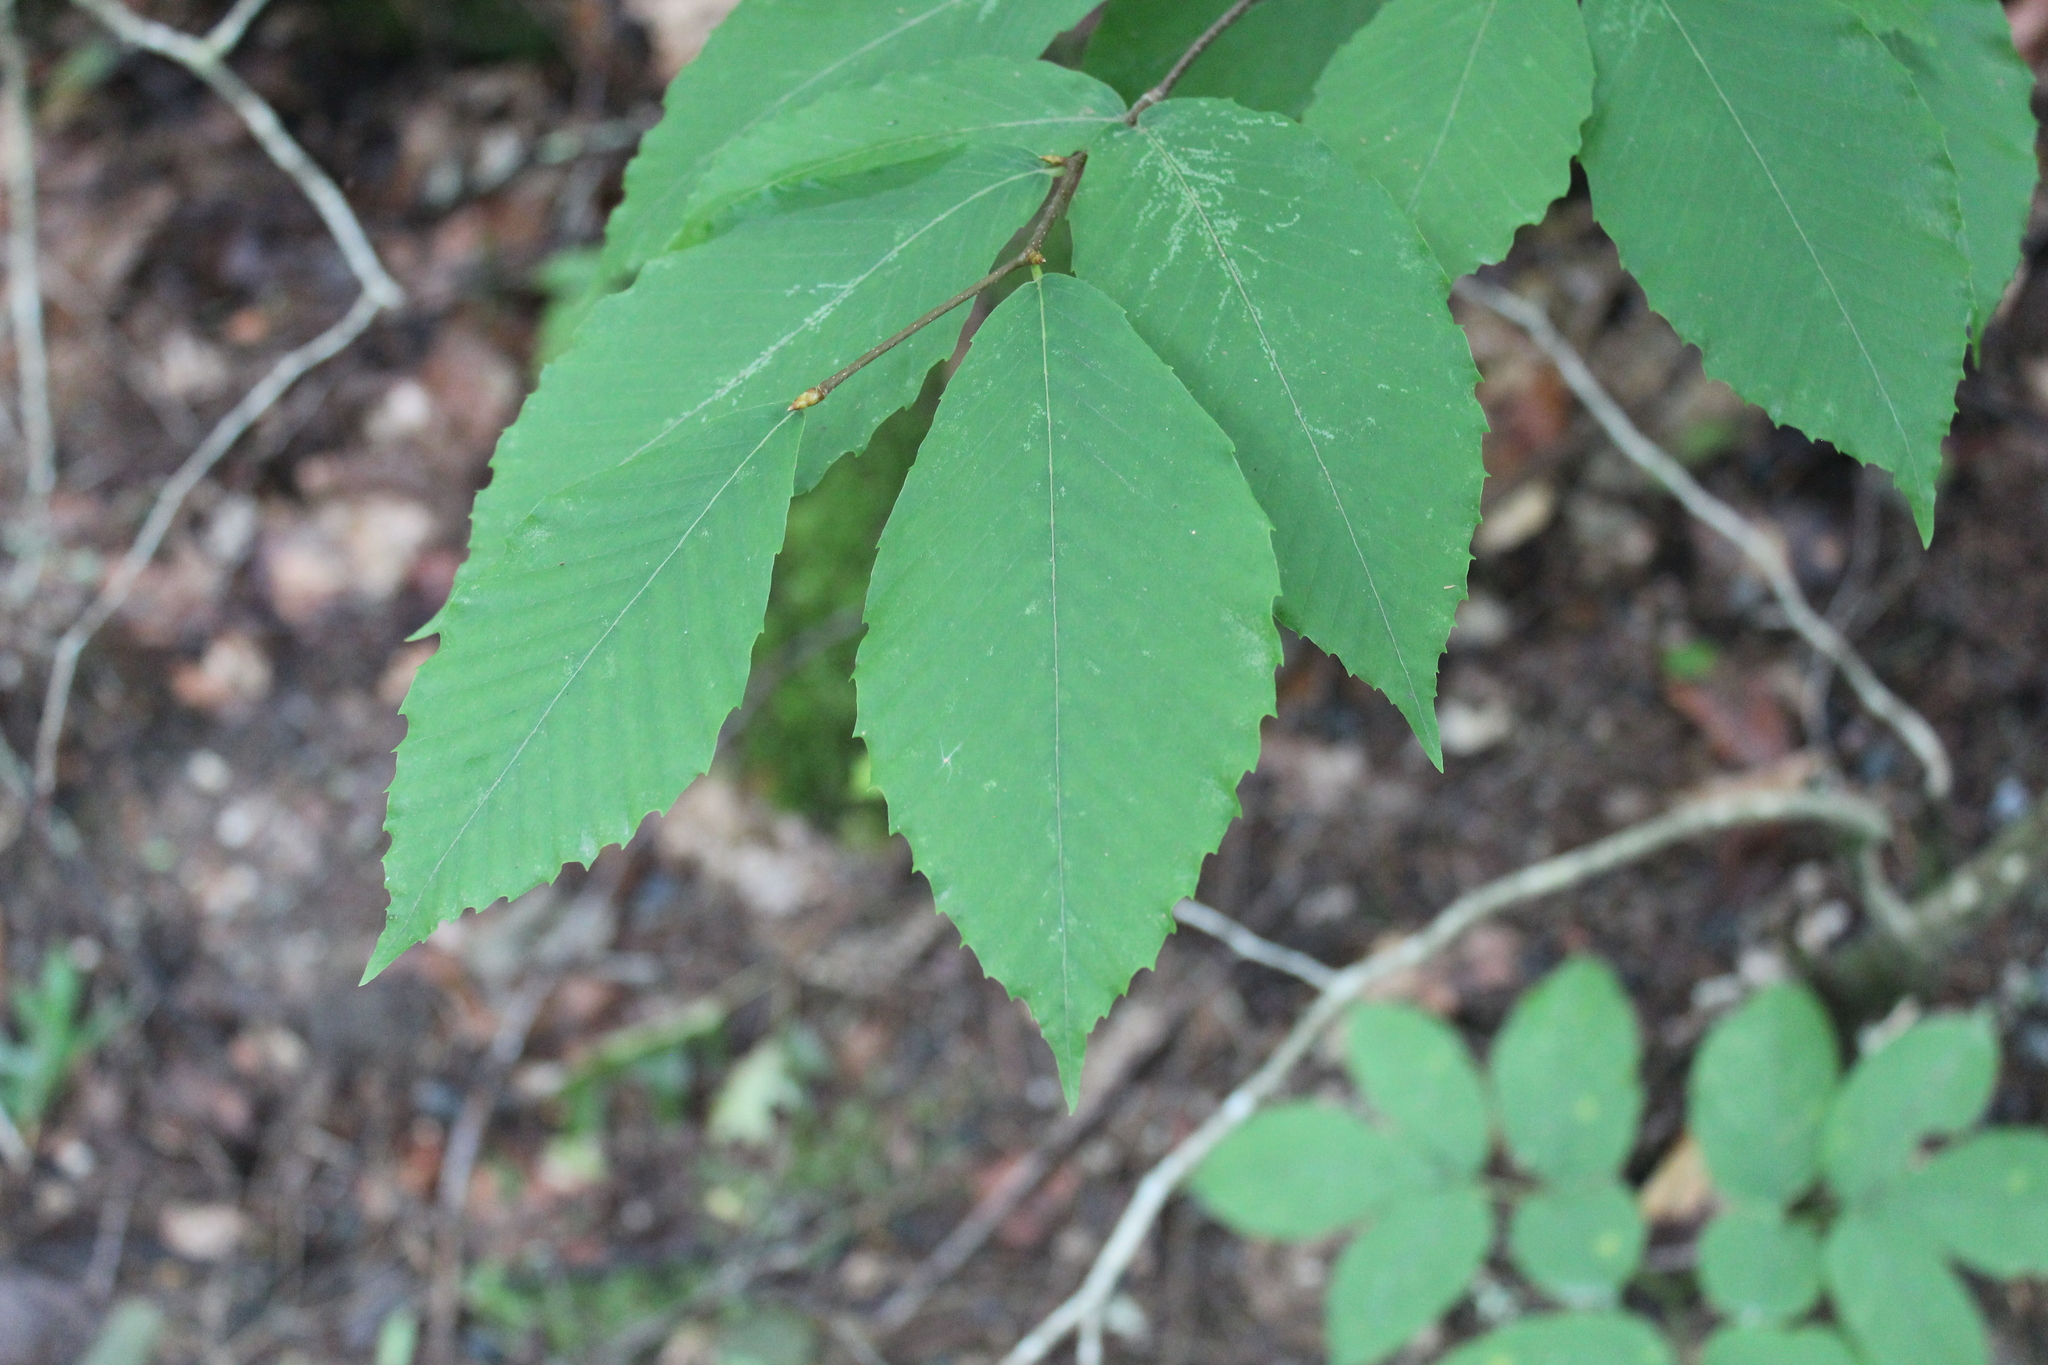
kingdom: Plantae
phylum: Tracheophyta
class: Magnoliopsida
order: Fagales
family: Fagaceae
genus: Fagus
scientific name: Fagus grandifolia
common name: American beech
